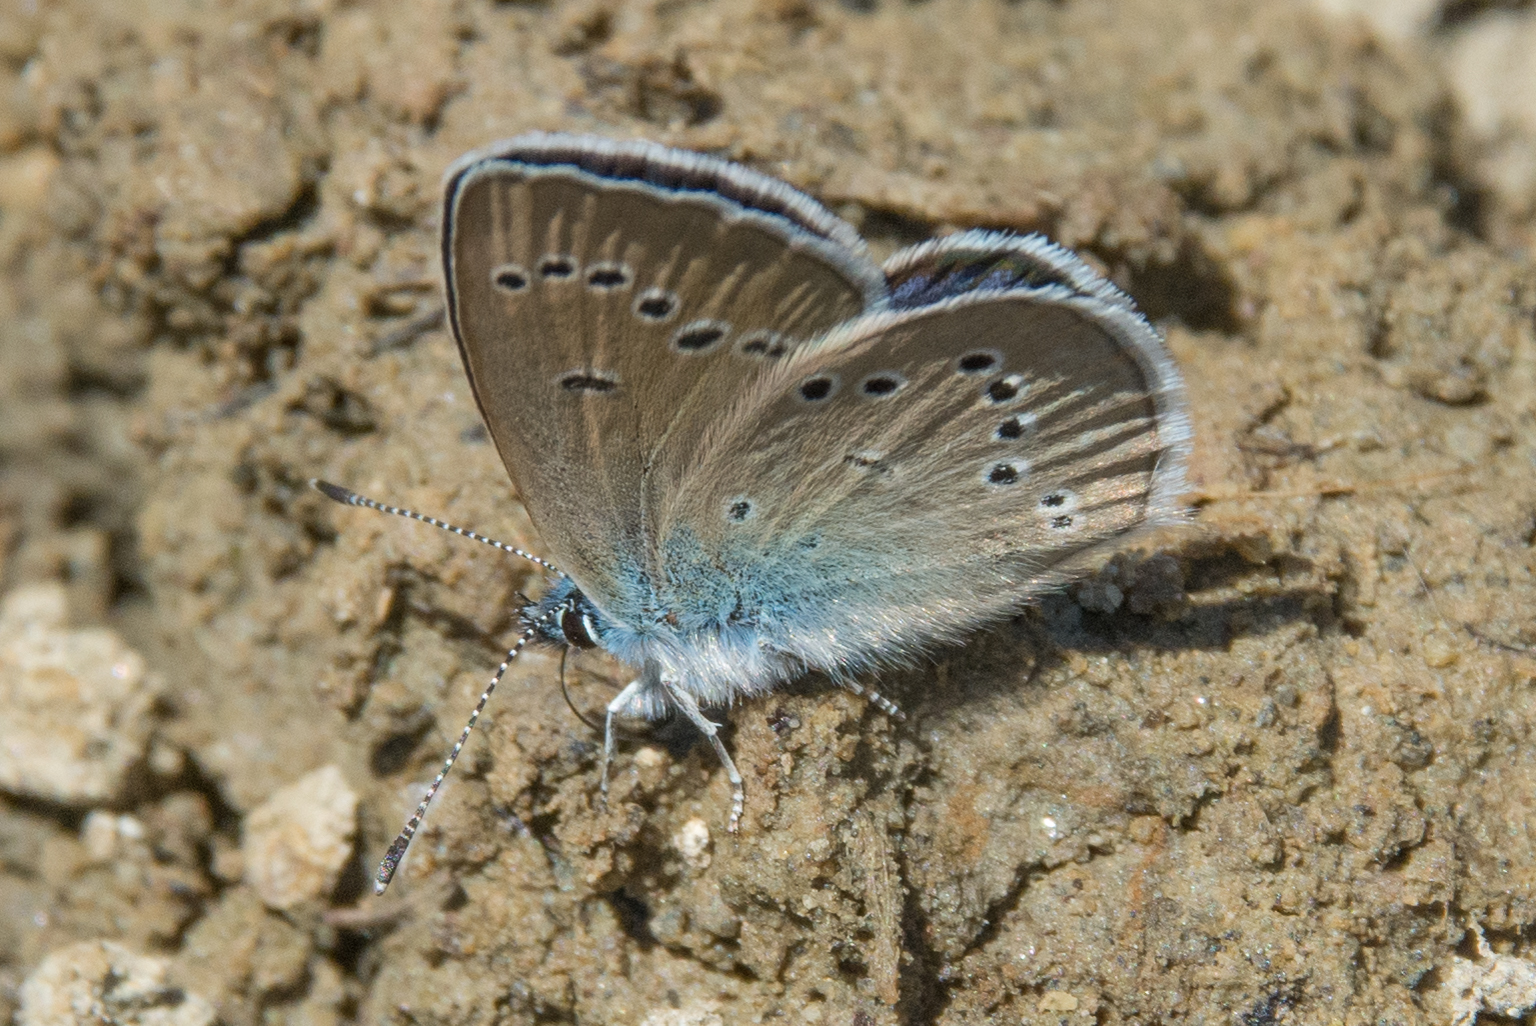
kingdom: Animalia
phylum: Arthropoda
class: Insecta
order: Lepidoptera
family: Lycaenidae
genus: Cyaniris
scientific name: Cyaniris semiargus
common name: Mazarine blue
